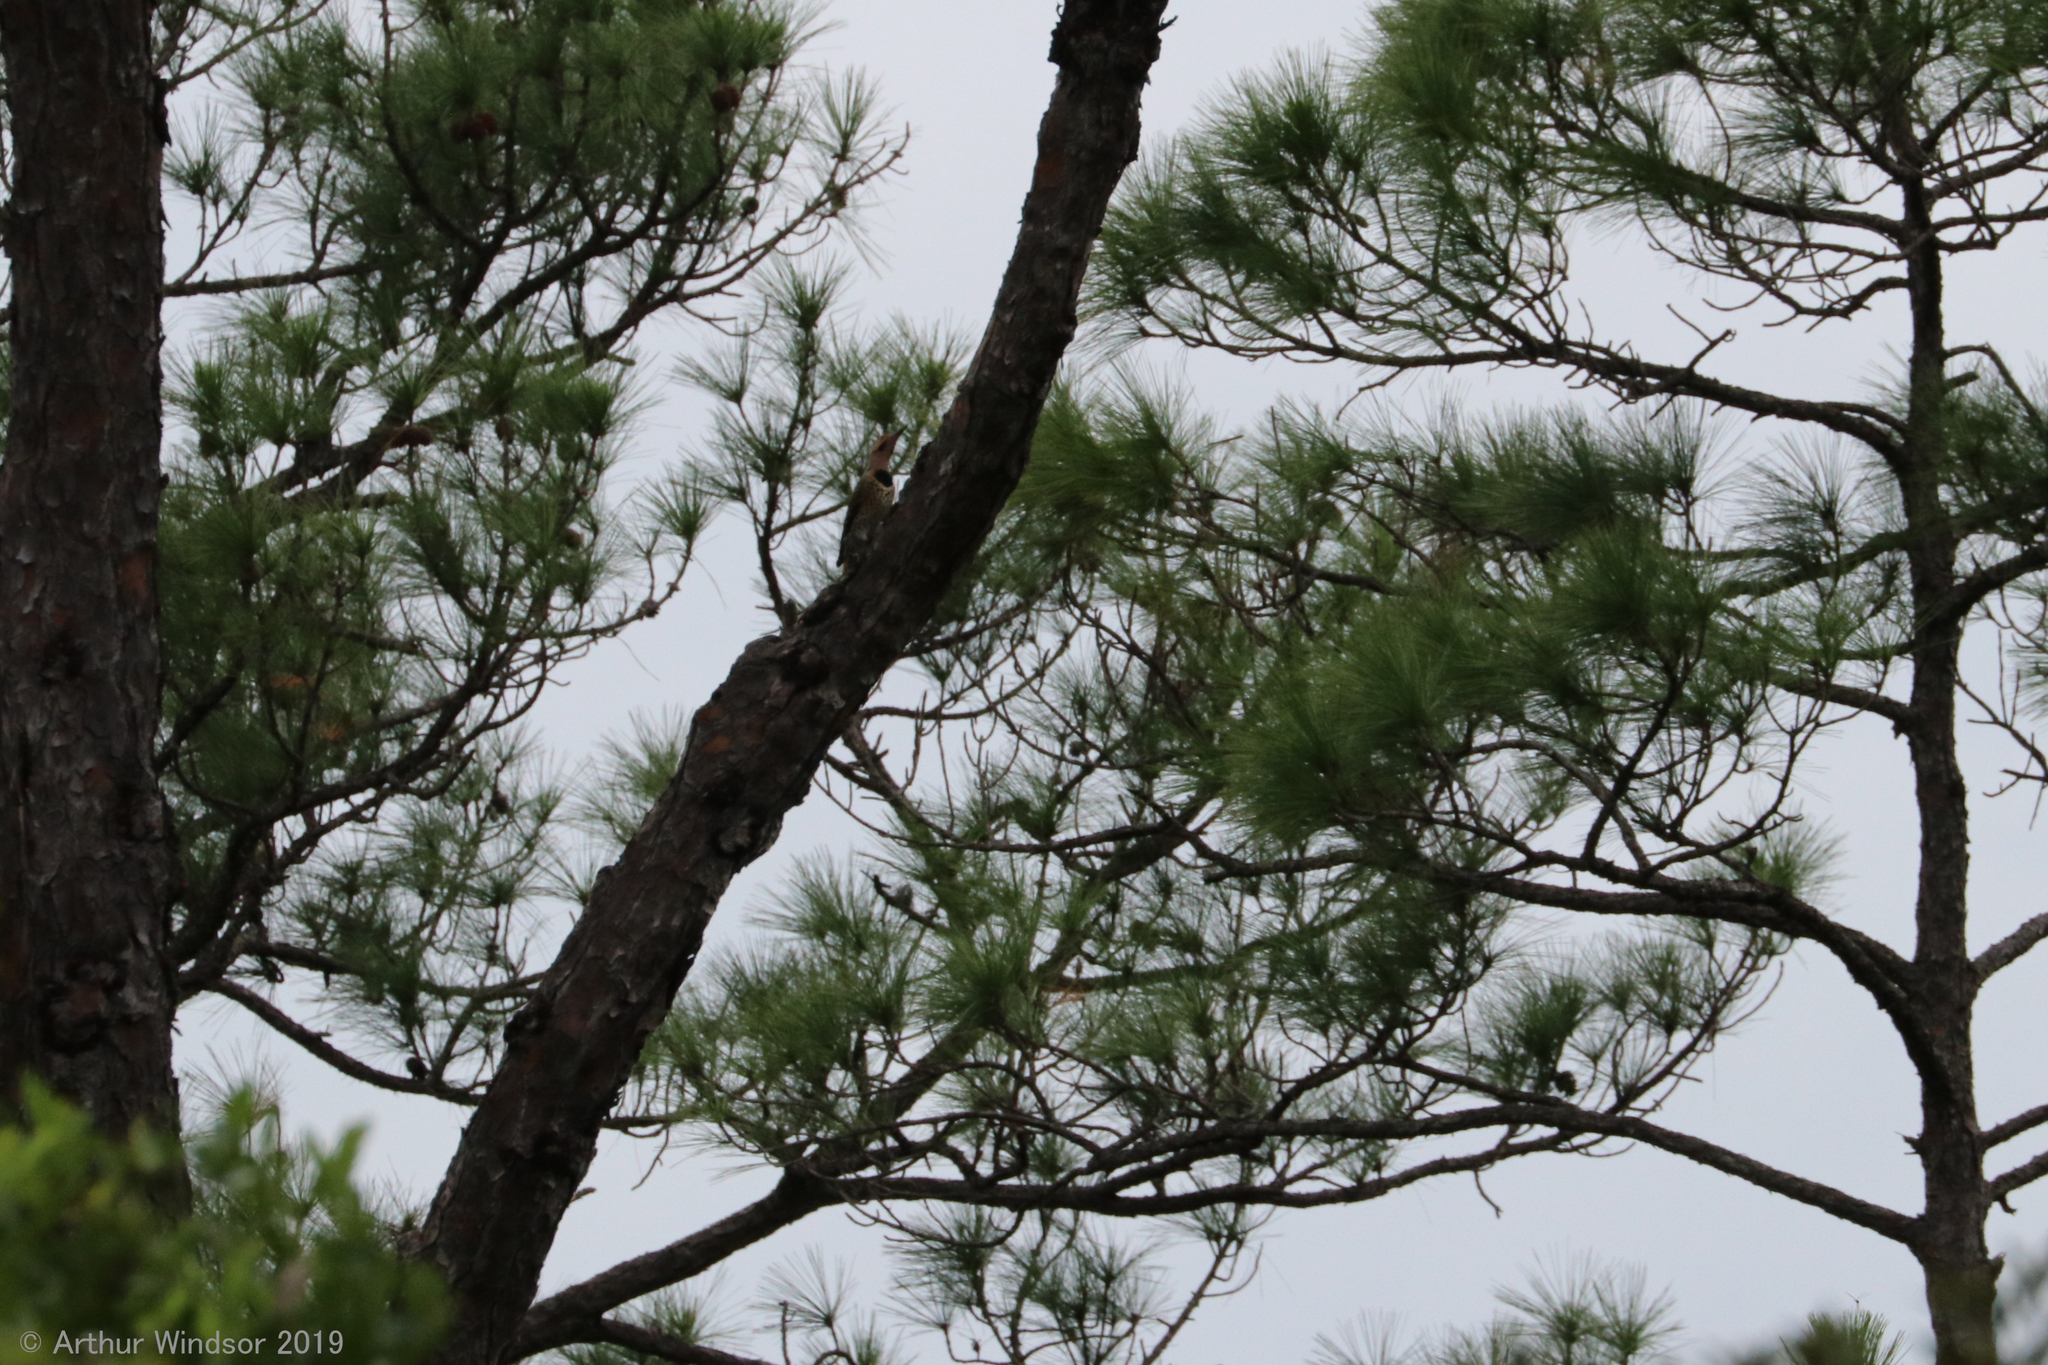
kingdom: Animalia
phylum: Chordata
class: Aves
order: Piciformes
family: Picidae
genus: Colaptes
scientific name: Colaptes auratus
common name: Northern flicker
